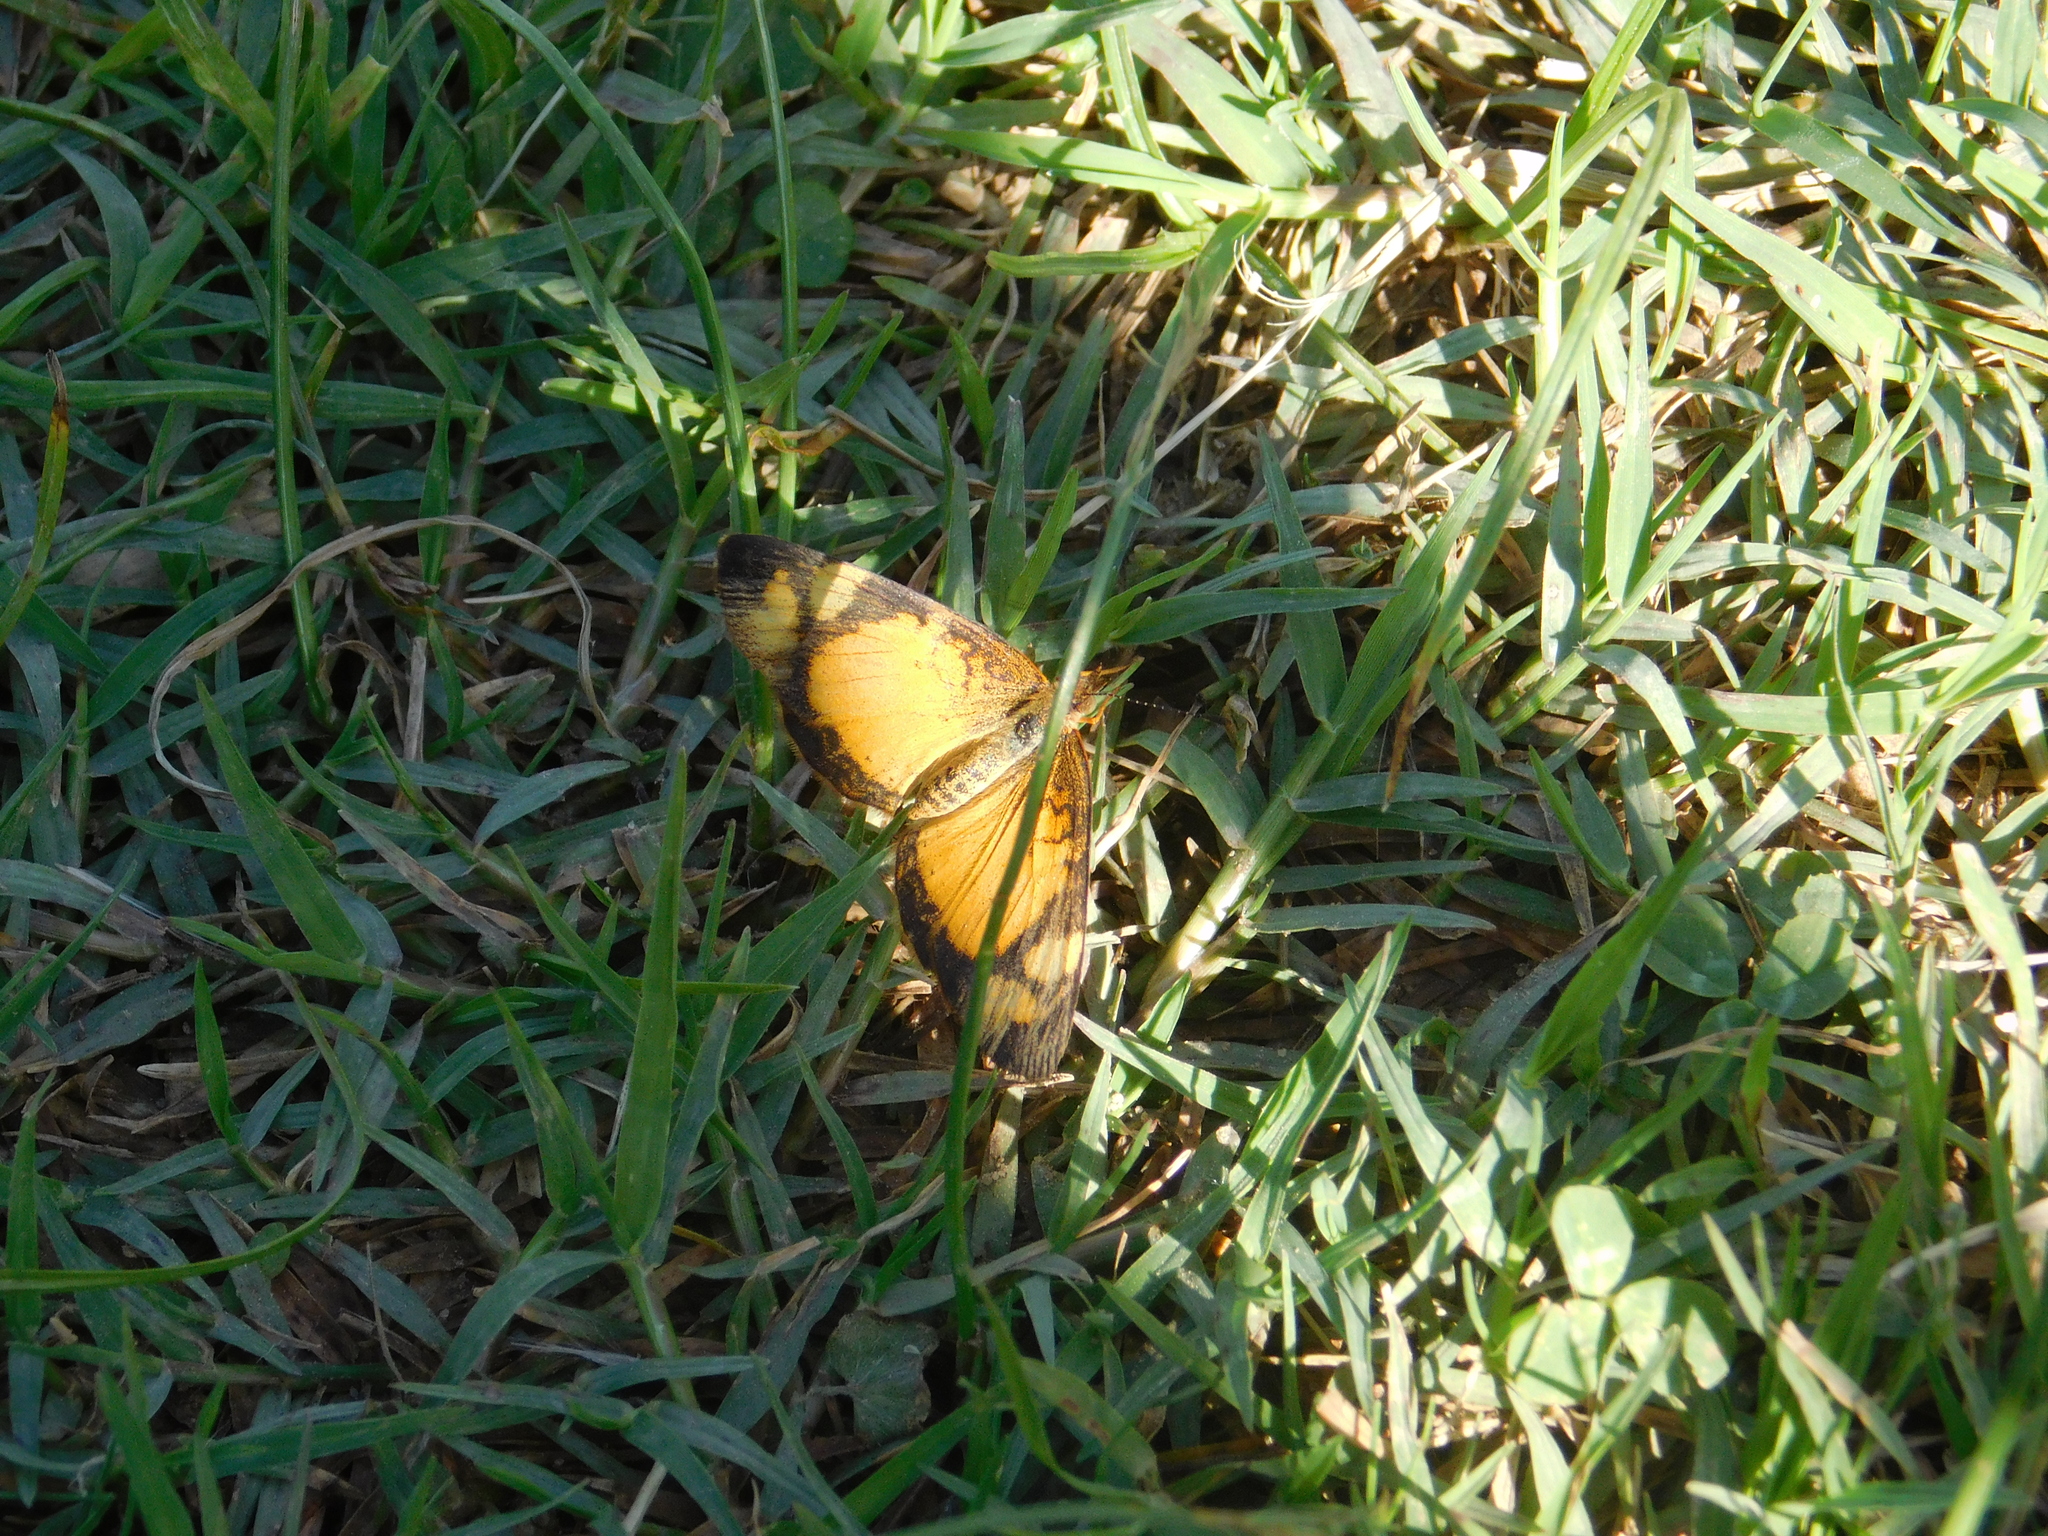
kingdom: Animalia
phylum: Arthropoda
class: Insecta
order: Lepidoptera
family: Nymphalidae
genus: Tegosa
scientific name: Tegosa claudina
